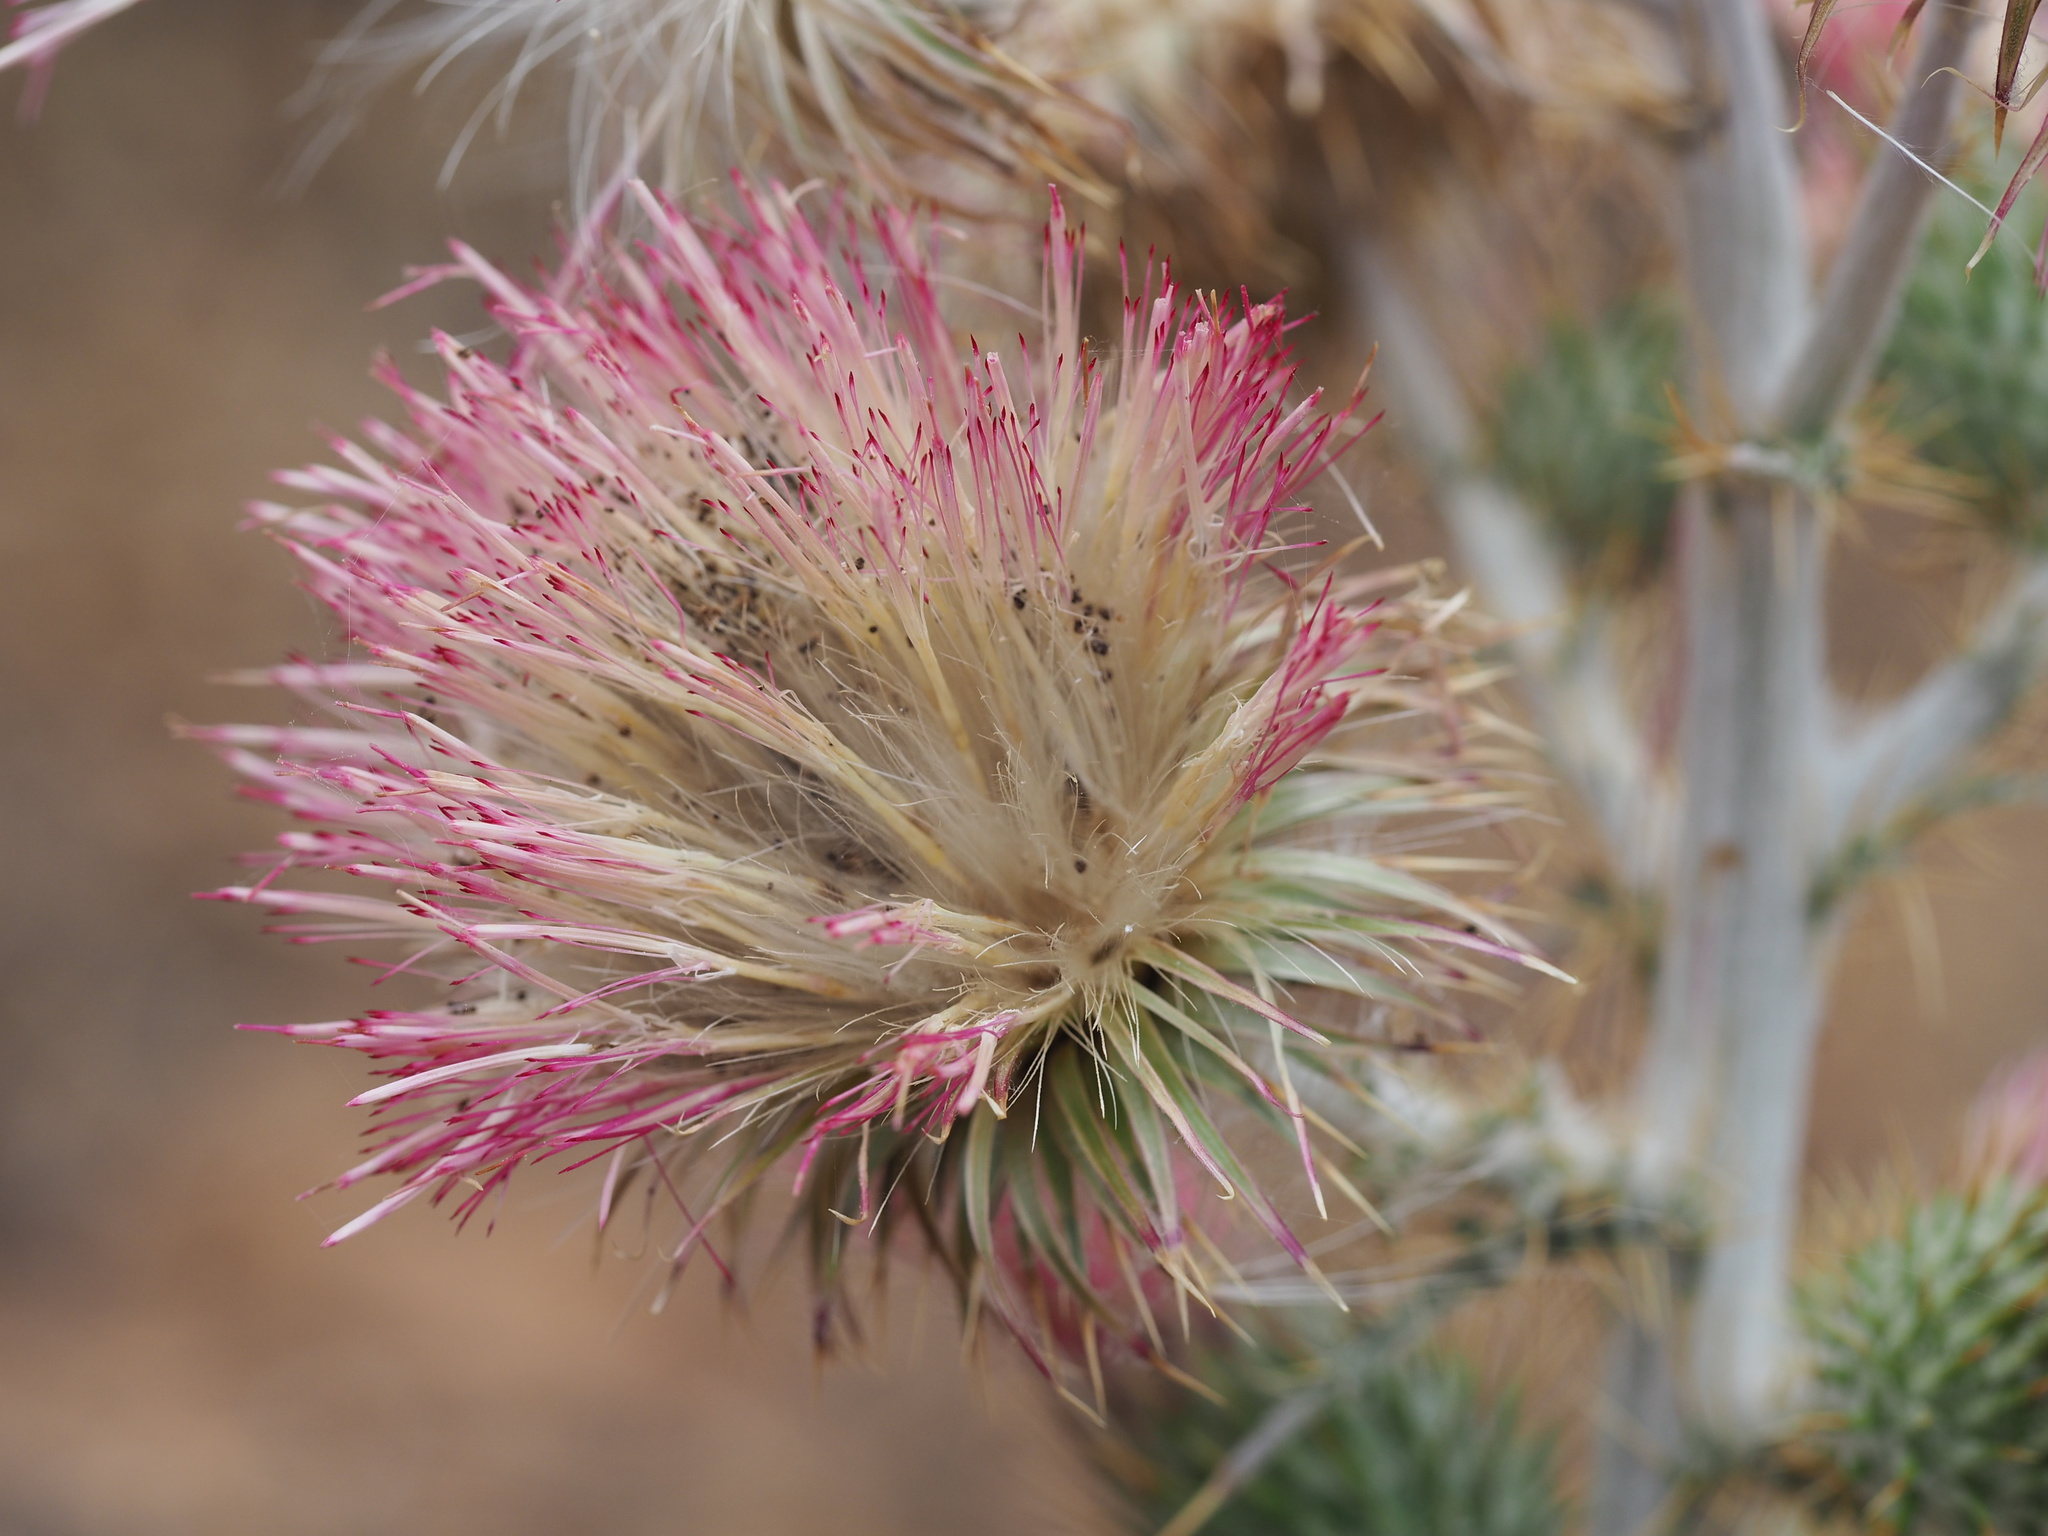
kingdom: Plantae
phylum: Tracheophyta
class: Magnoliopsida
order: Asterales
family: Asteraceae
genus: Cirsium
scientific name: Cirsium occidentale
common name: Western thistle
